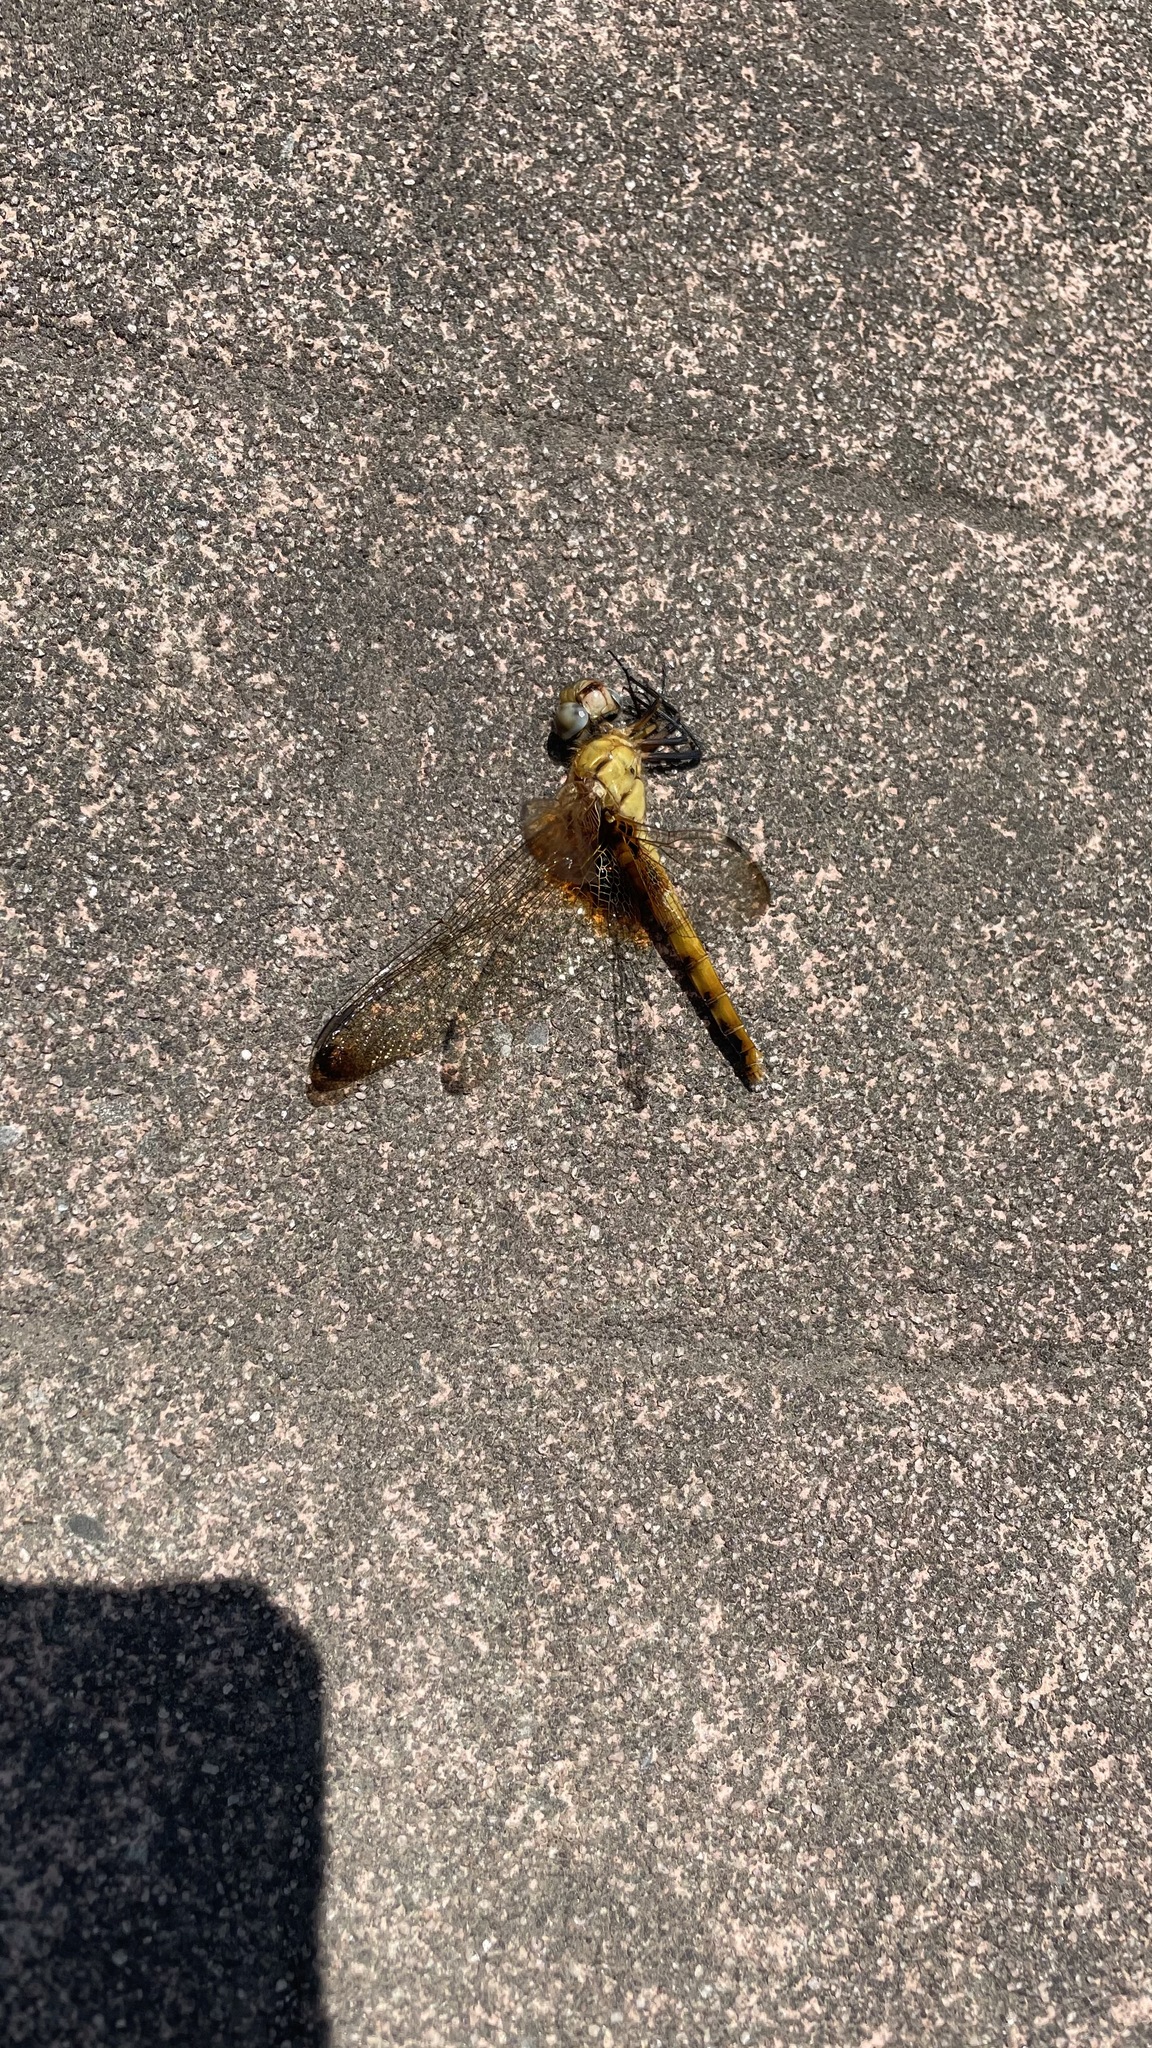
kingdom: Animalia
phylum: Arthropoda
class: Insecta
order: Odonata
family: Libellulidae
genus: Urothemis
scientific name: Urothemis signata
